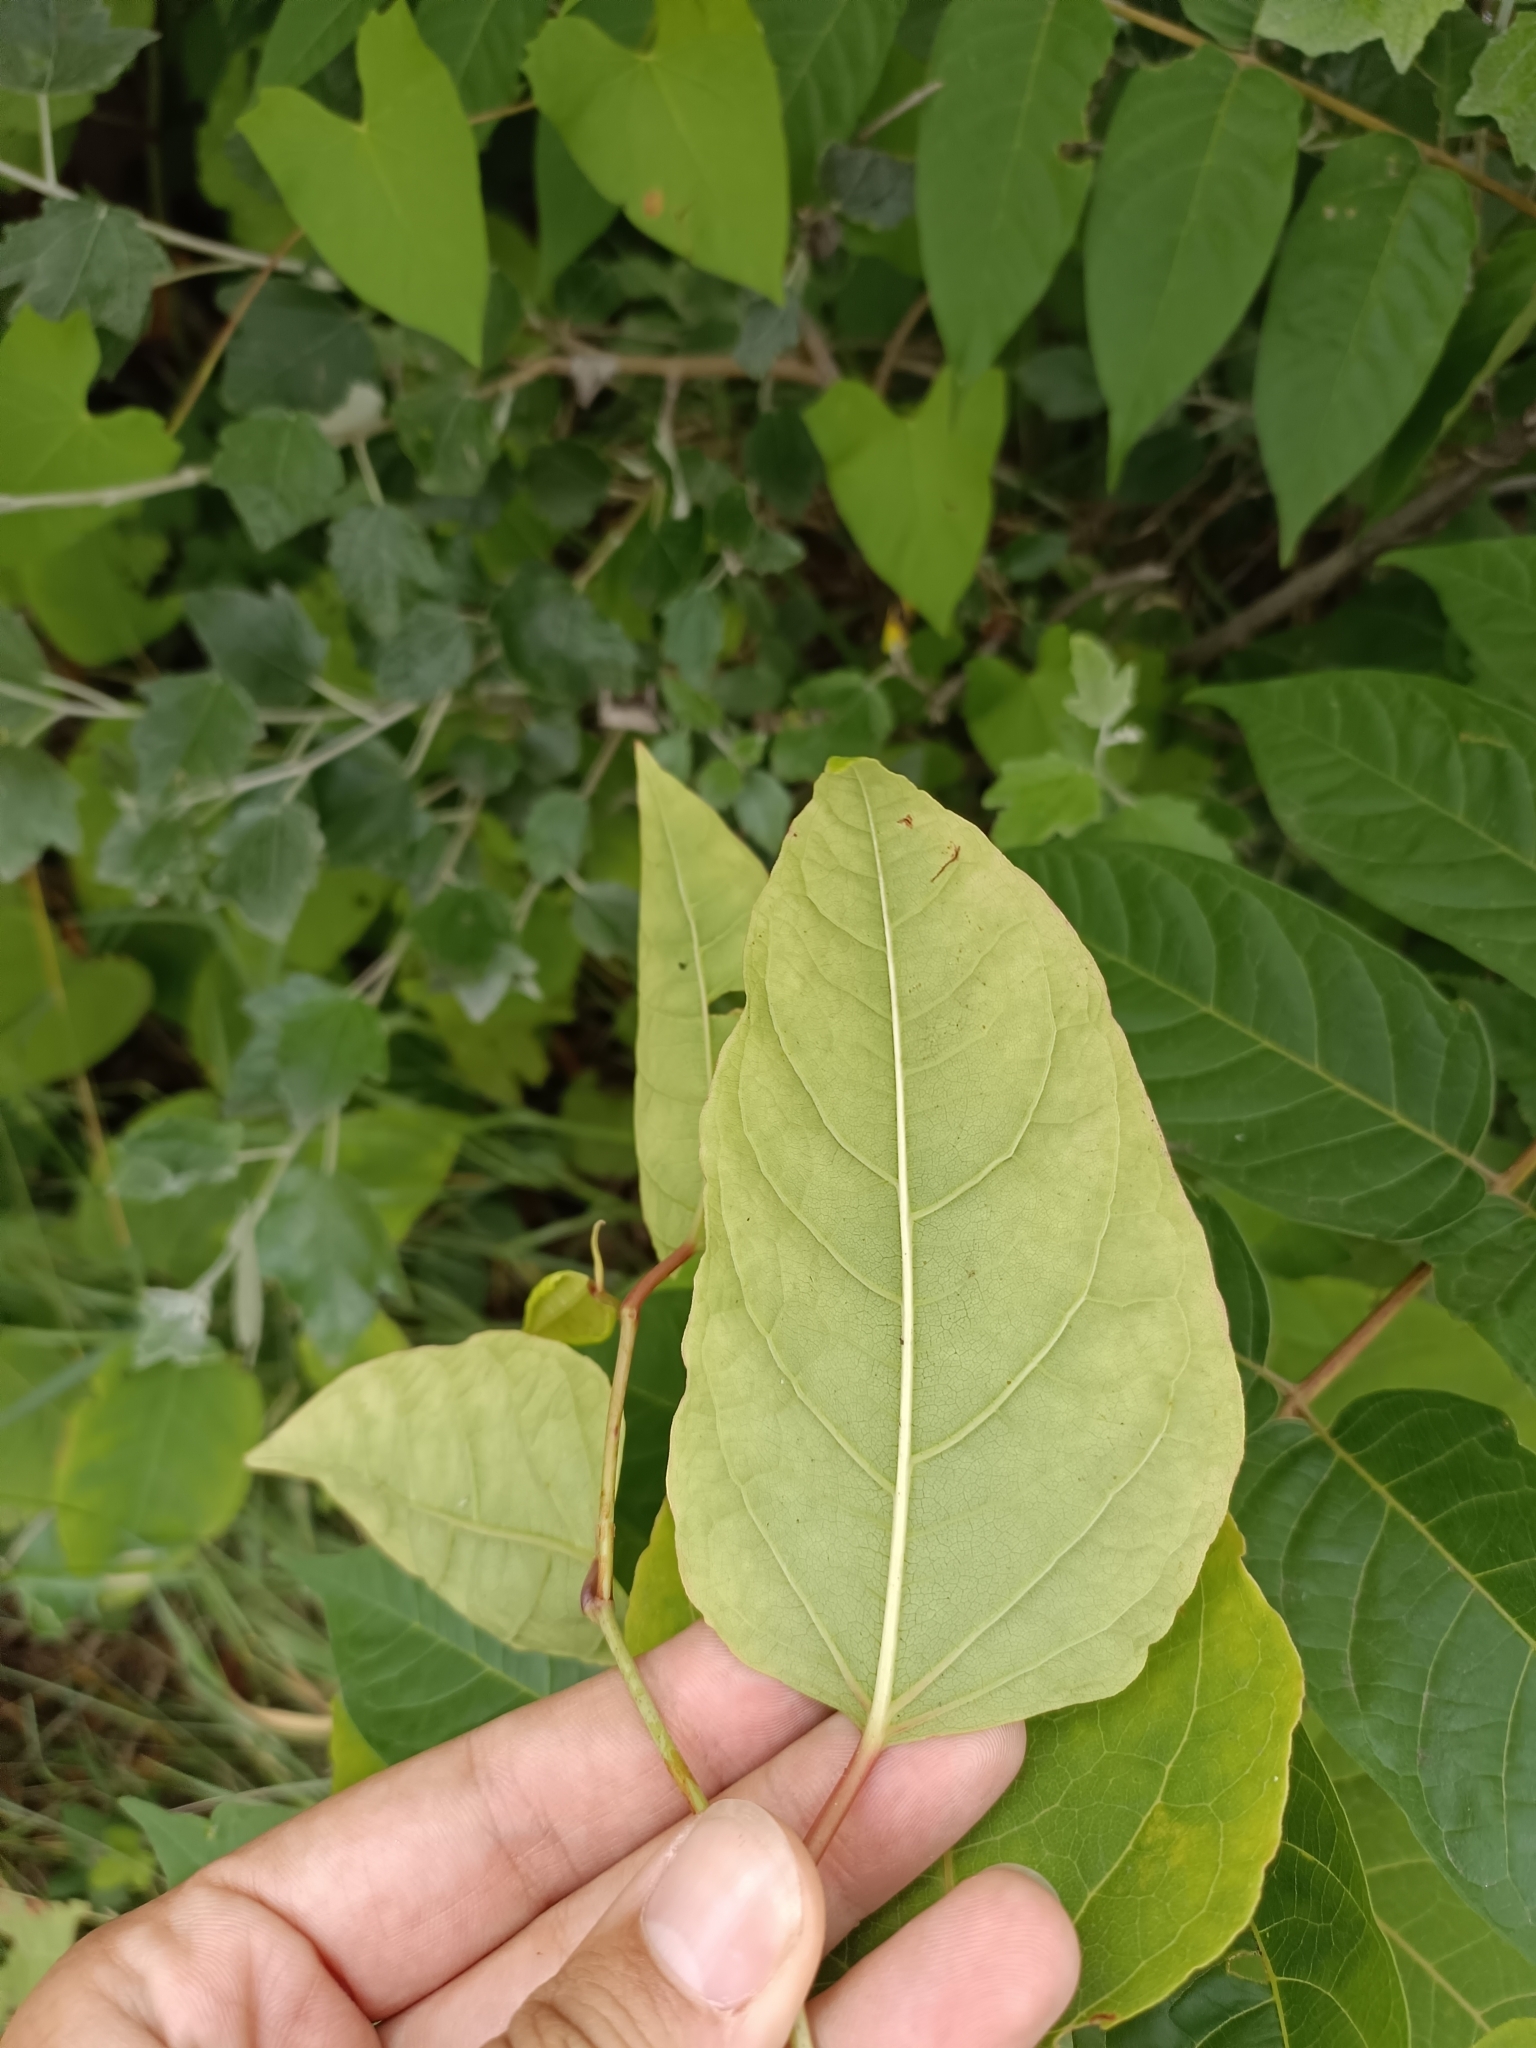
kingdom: Plantae
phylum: Tracheophyta
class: Magnoliopsida
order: Caryophyllales
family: Polygonaceae
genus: Reynoutria
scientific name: Reynoutria bohemica
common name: Bohemian knotweed
